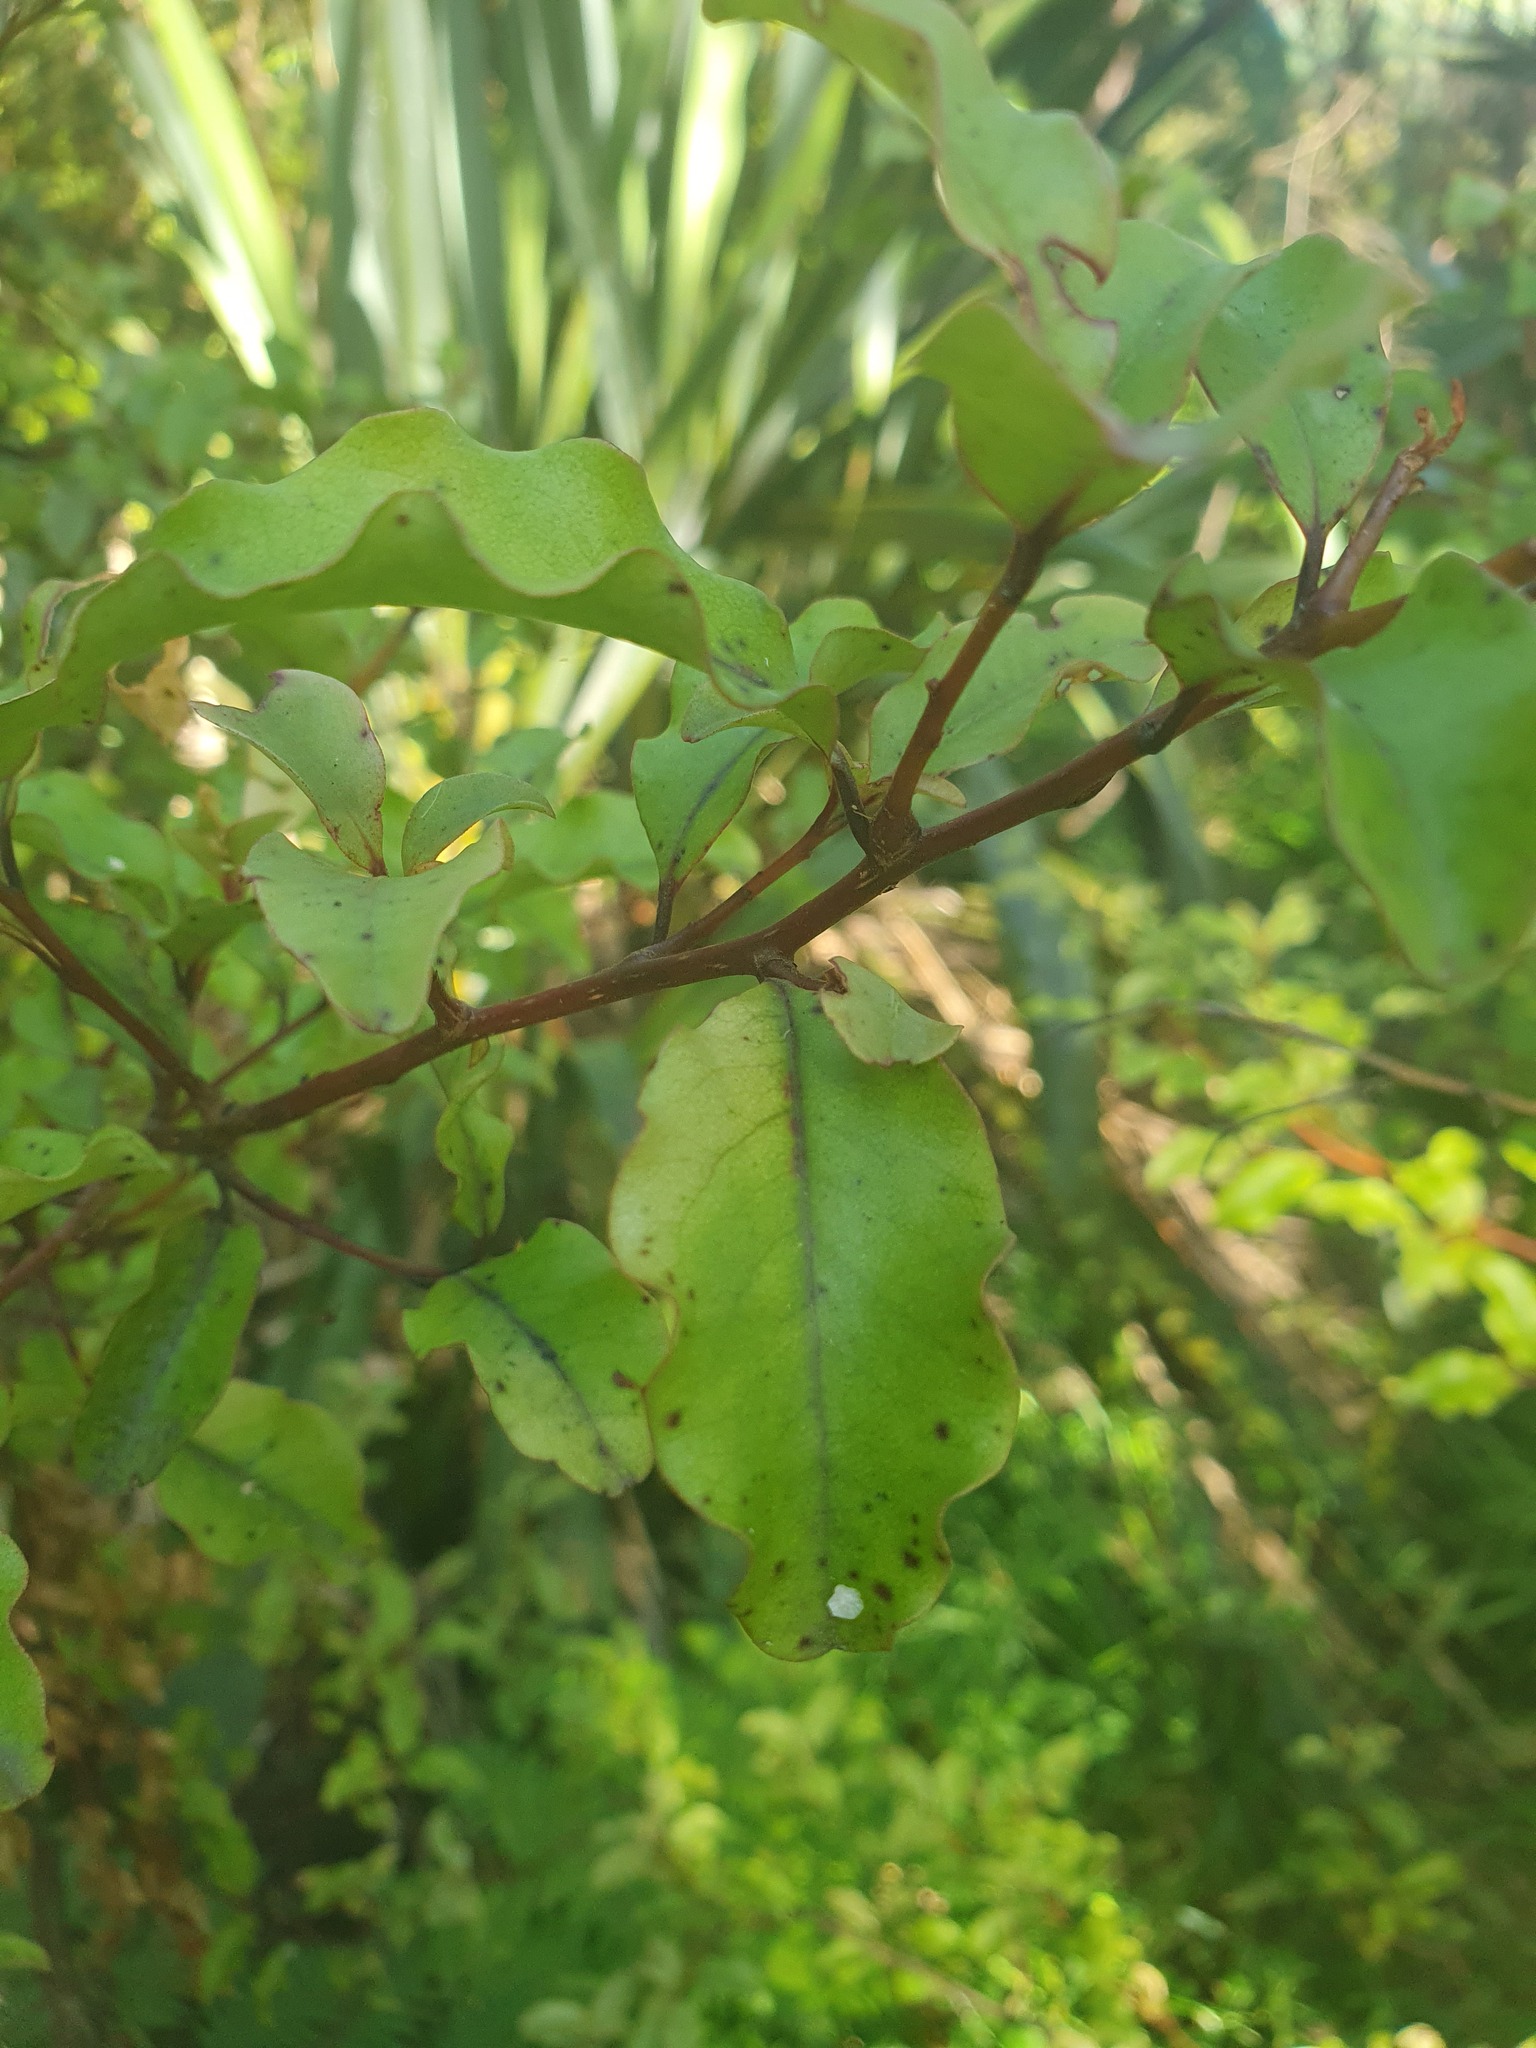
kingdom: Plantae
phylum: Tracheophyta
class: Magnoliopsida
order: Ericales
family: Primulaceae
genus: Myrsine
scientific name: Myrsine australis
